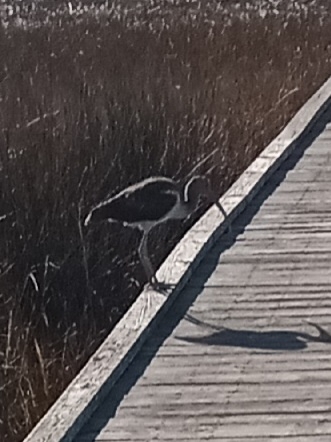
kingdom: Animalia
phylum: Chordata
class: Aves
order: Pelecaniformes
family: Threskiornithidae
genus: Eudocimus
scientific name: Eudocimus albus
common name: White ibis
